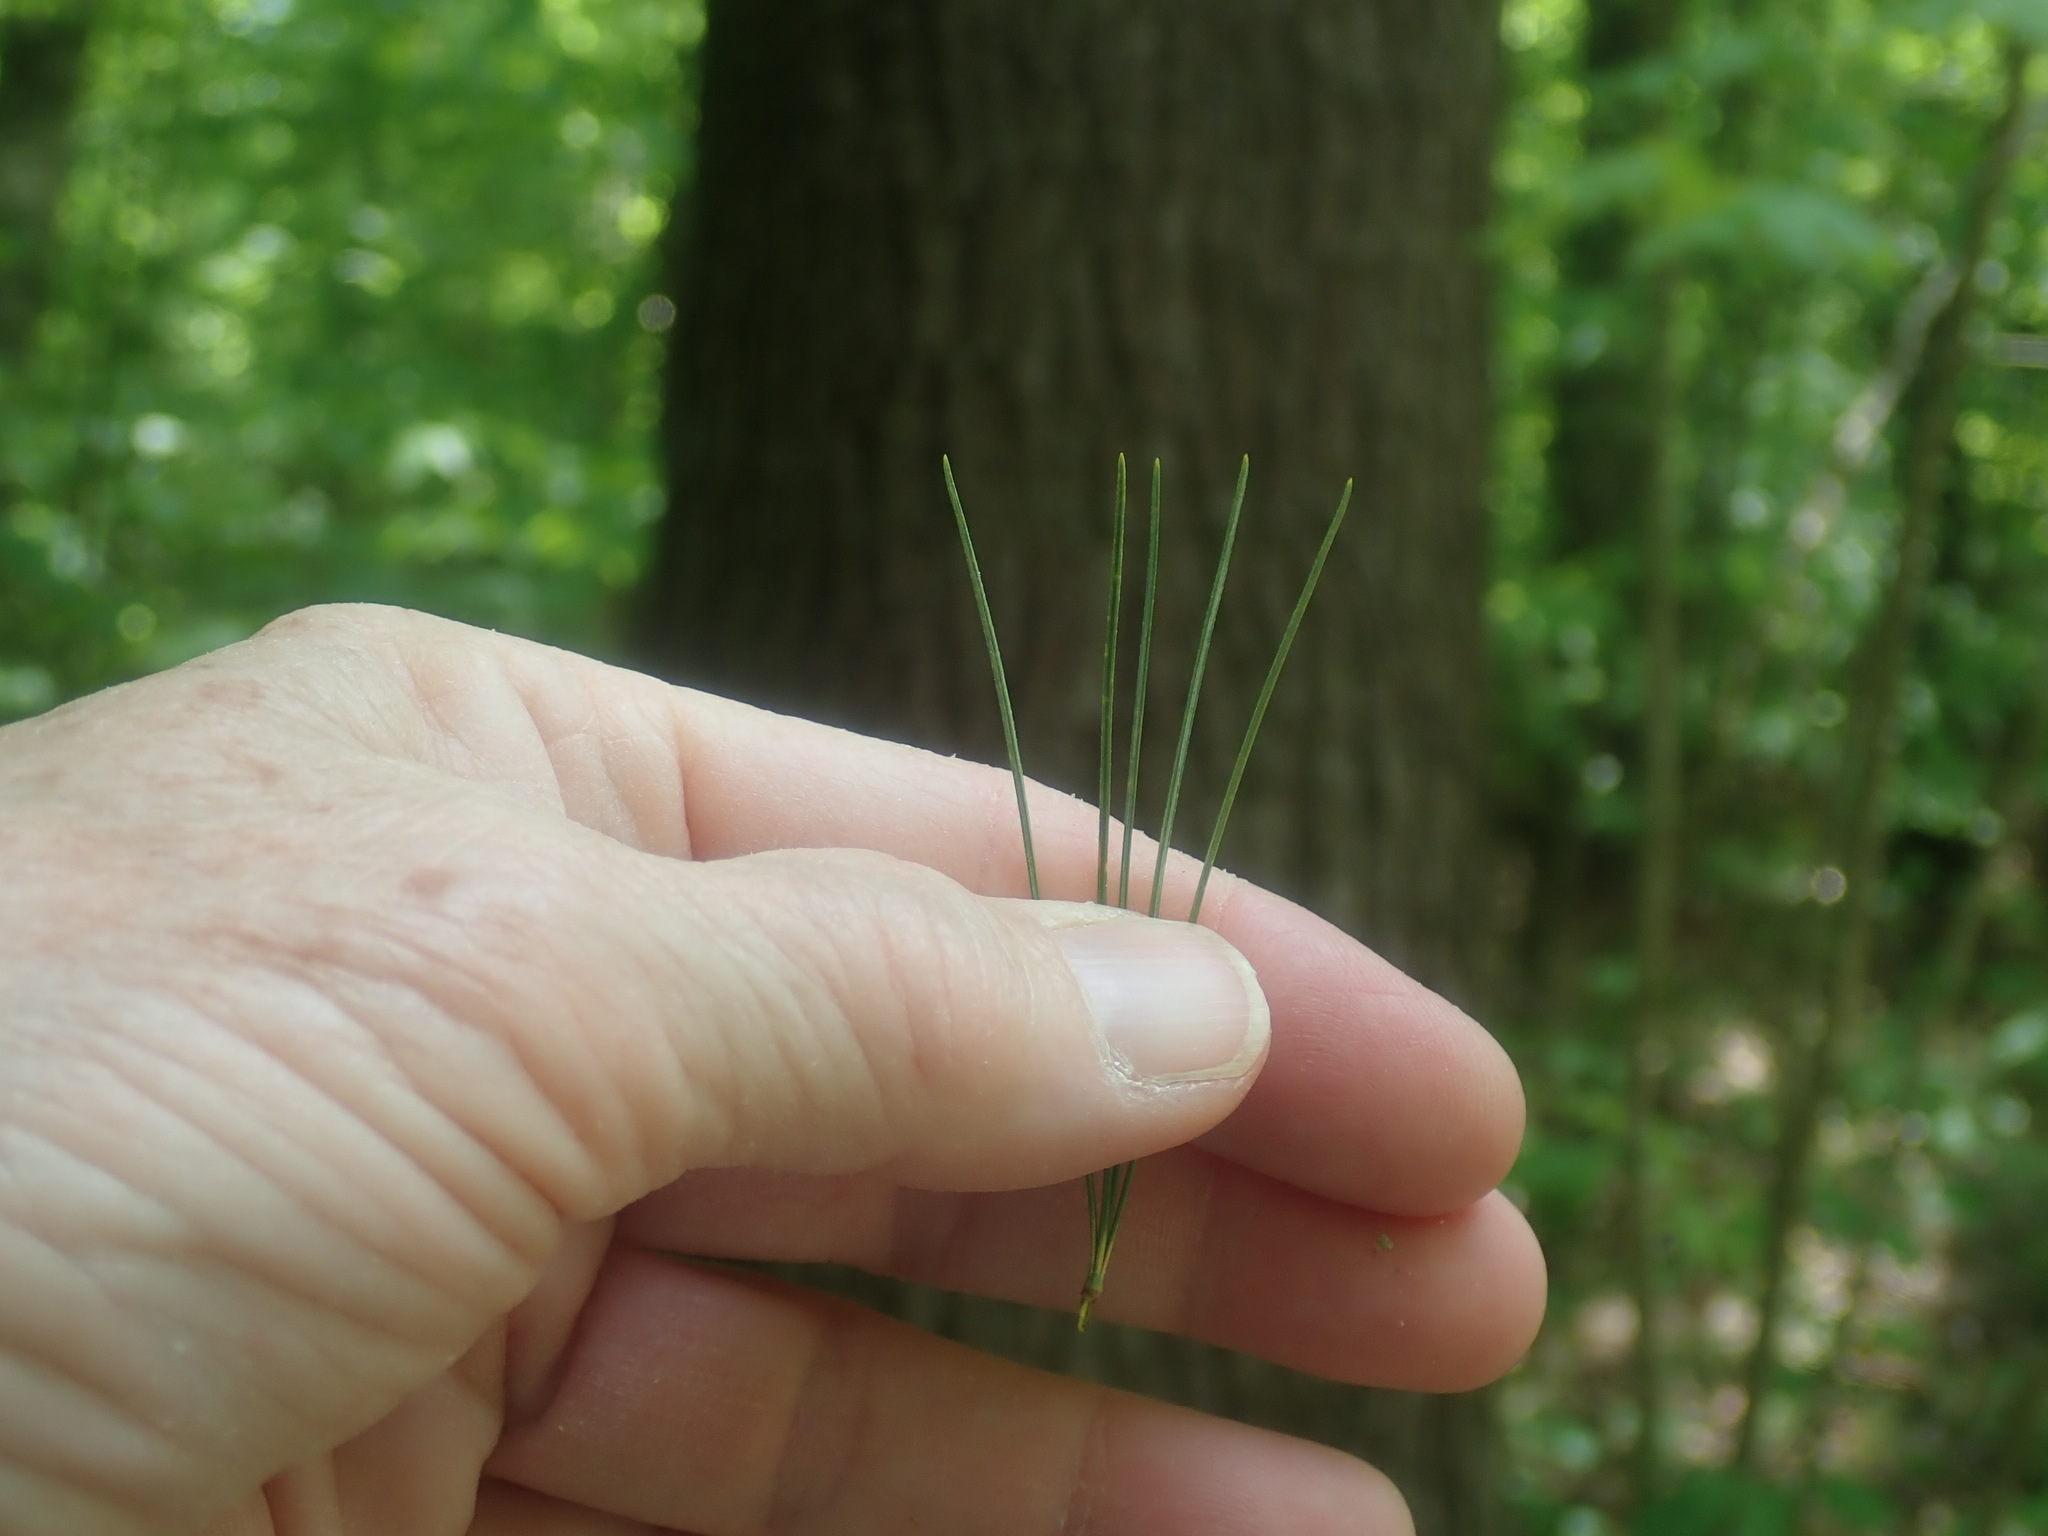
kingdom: Plantae
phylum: Tracheophyta
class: Pinopsida
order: Pinales
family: Pinaceae
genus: Pinus
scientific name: Pinus strobus
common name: Weymouth pine
